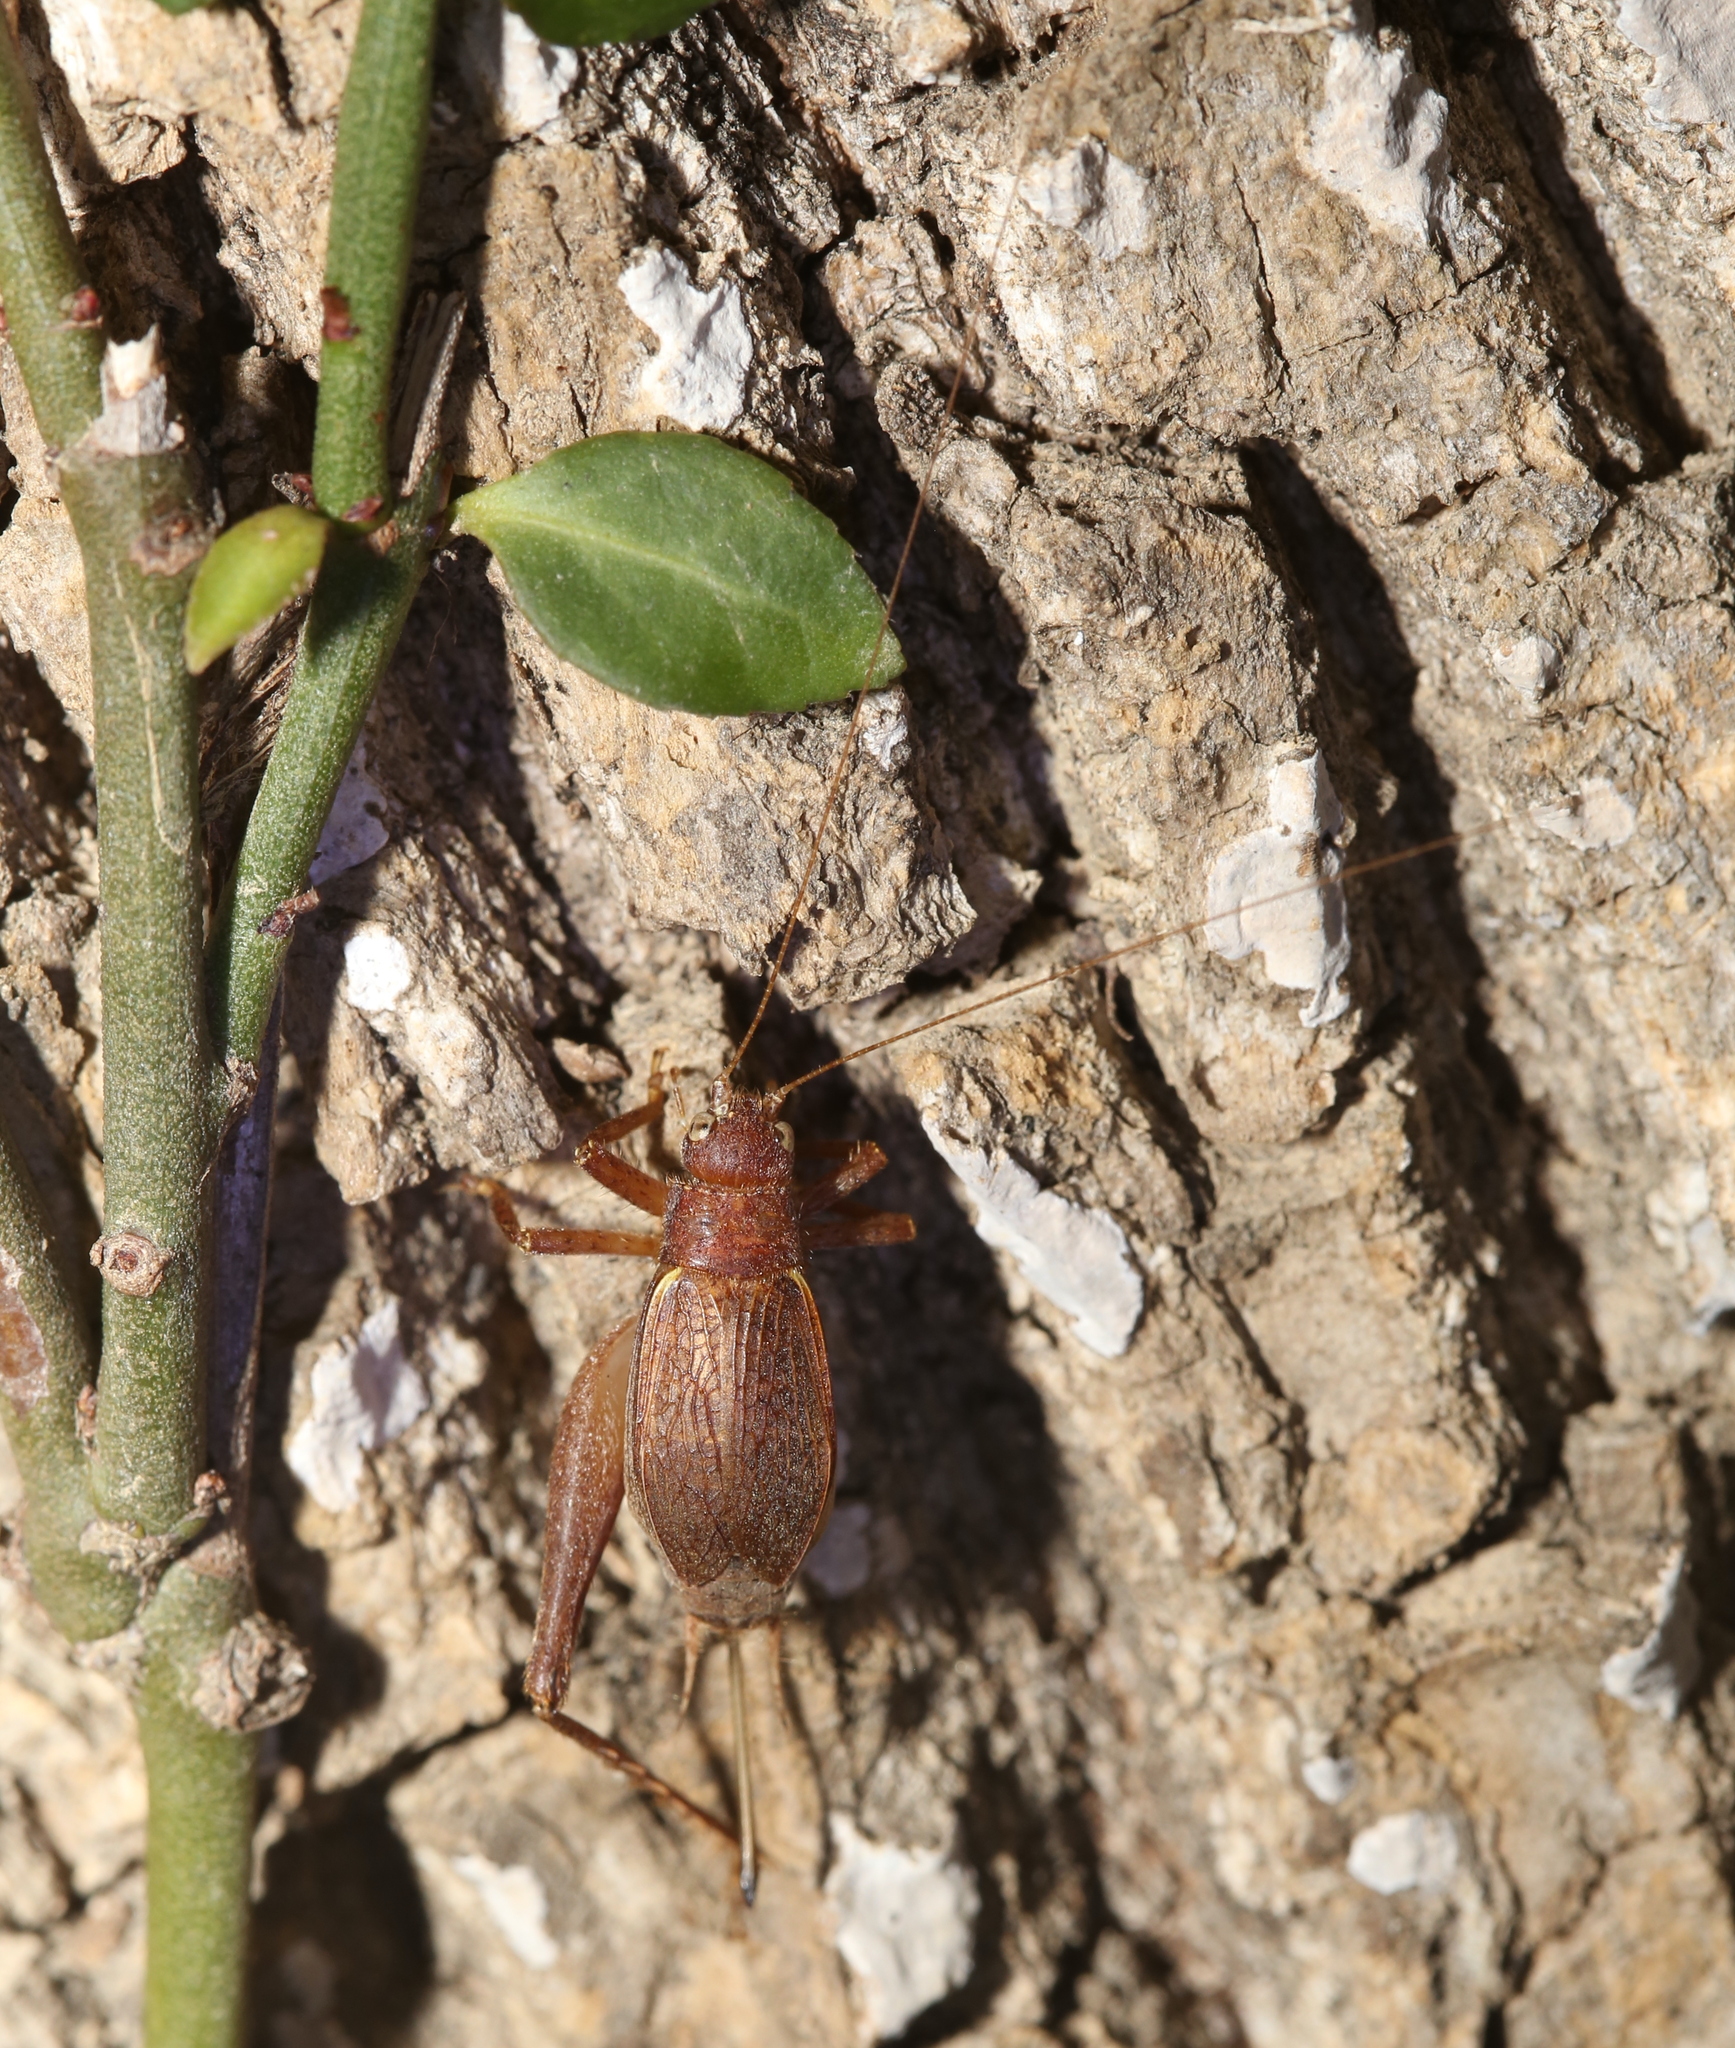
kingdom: Animalia
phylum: Arthropoda
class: Insecta
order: Orthoptera
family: Gryllidae
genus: Hapithus
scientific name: Hapithus agitator
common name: Restless bush cricket
